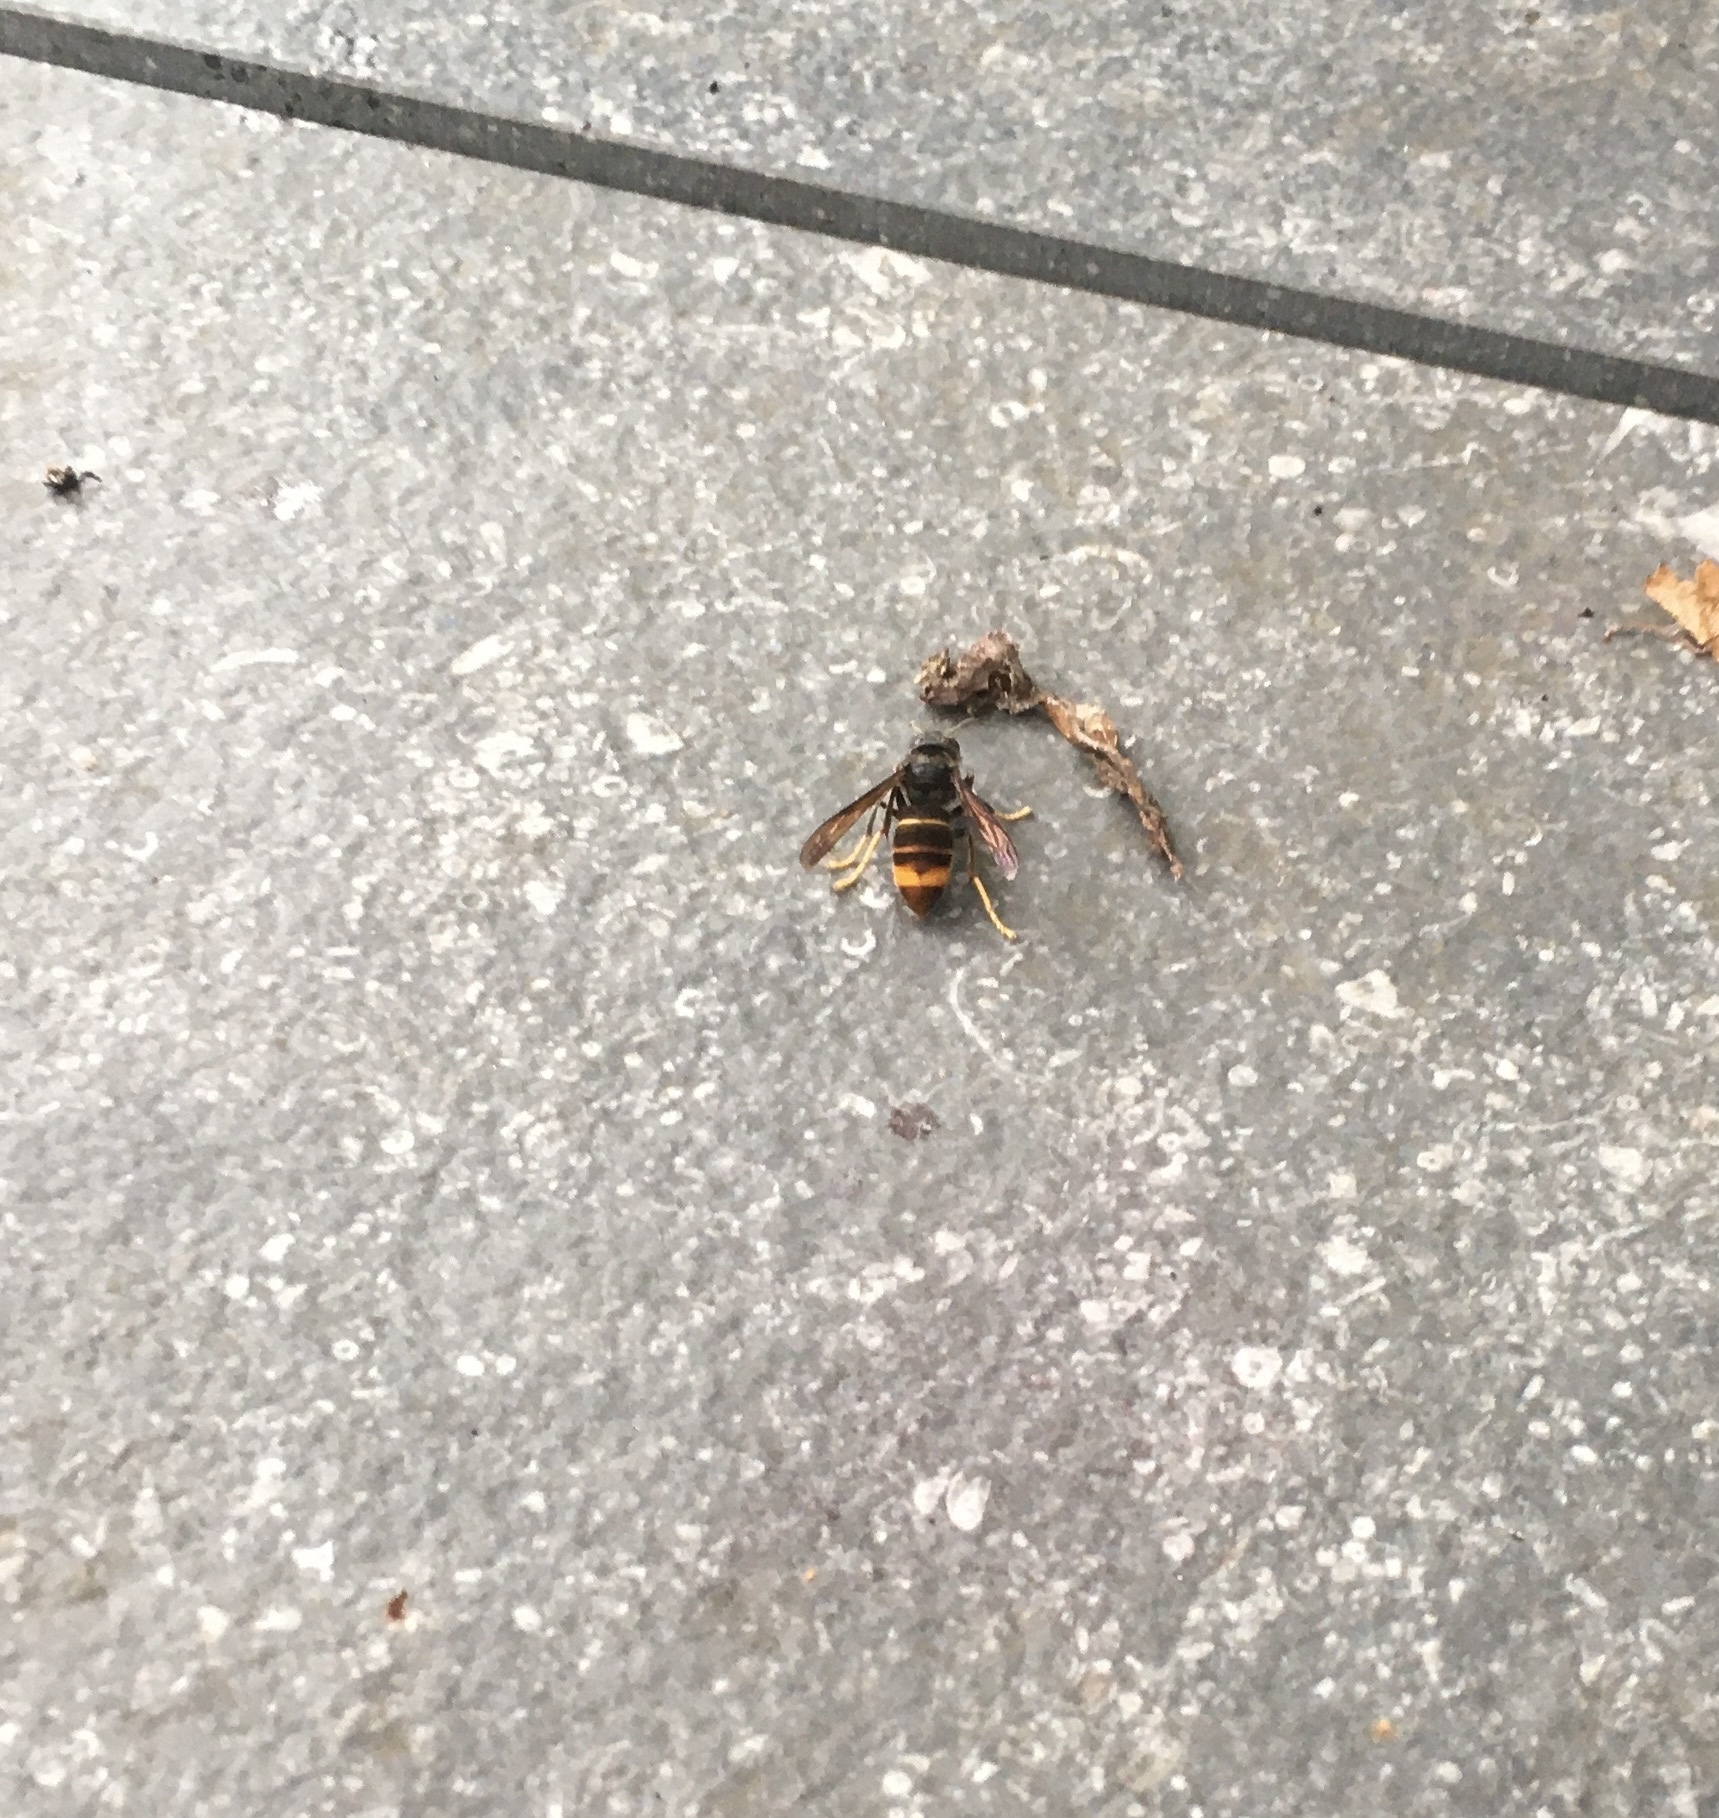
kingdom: Animalia
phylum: Arthropoda
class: Insecta
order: Hymenoptera
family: Vespidae
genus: Vespa
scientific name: Vespa velutina
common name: Asian hornet
